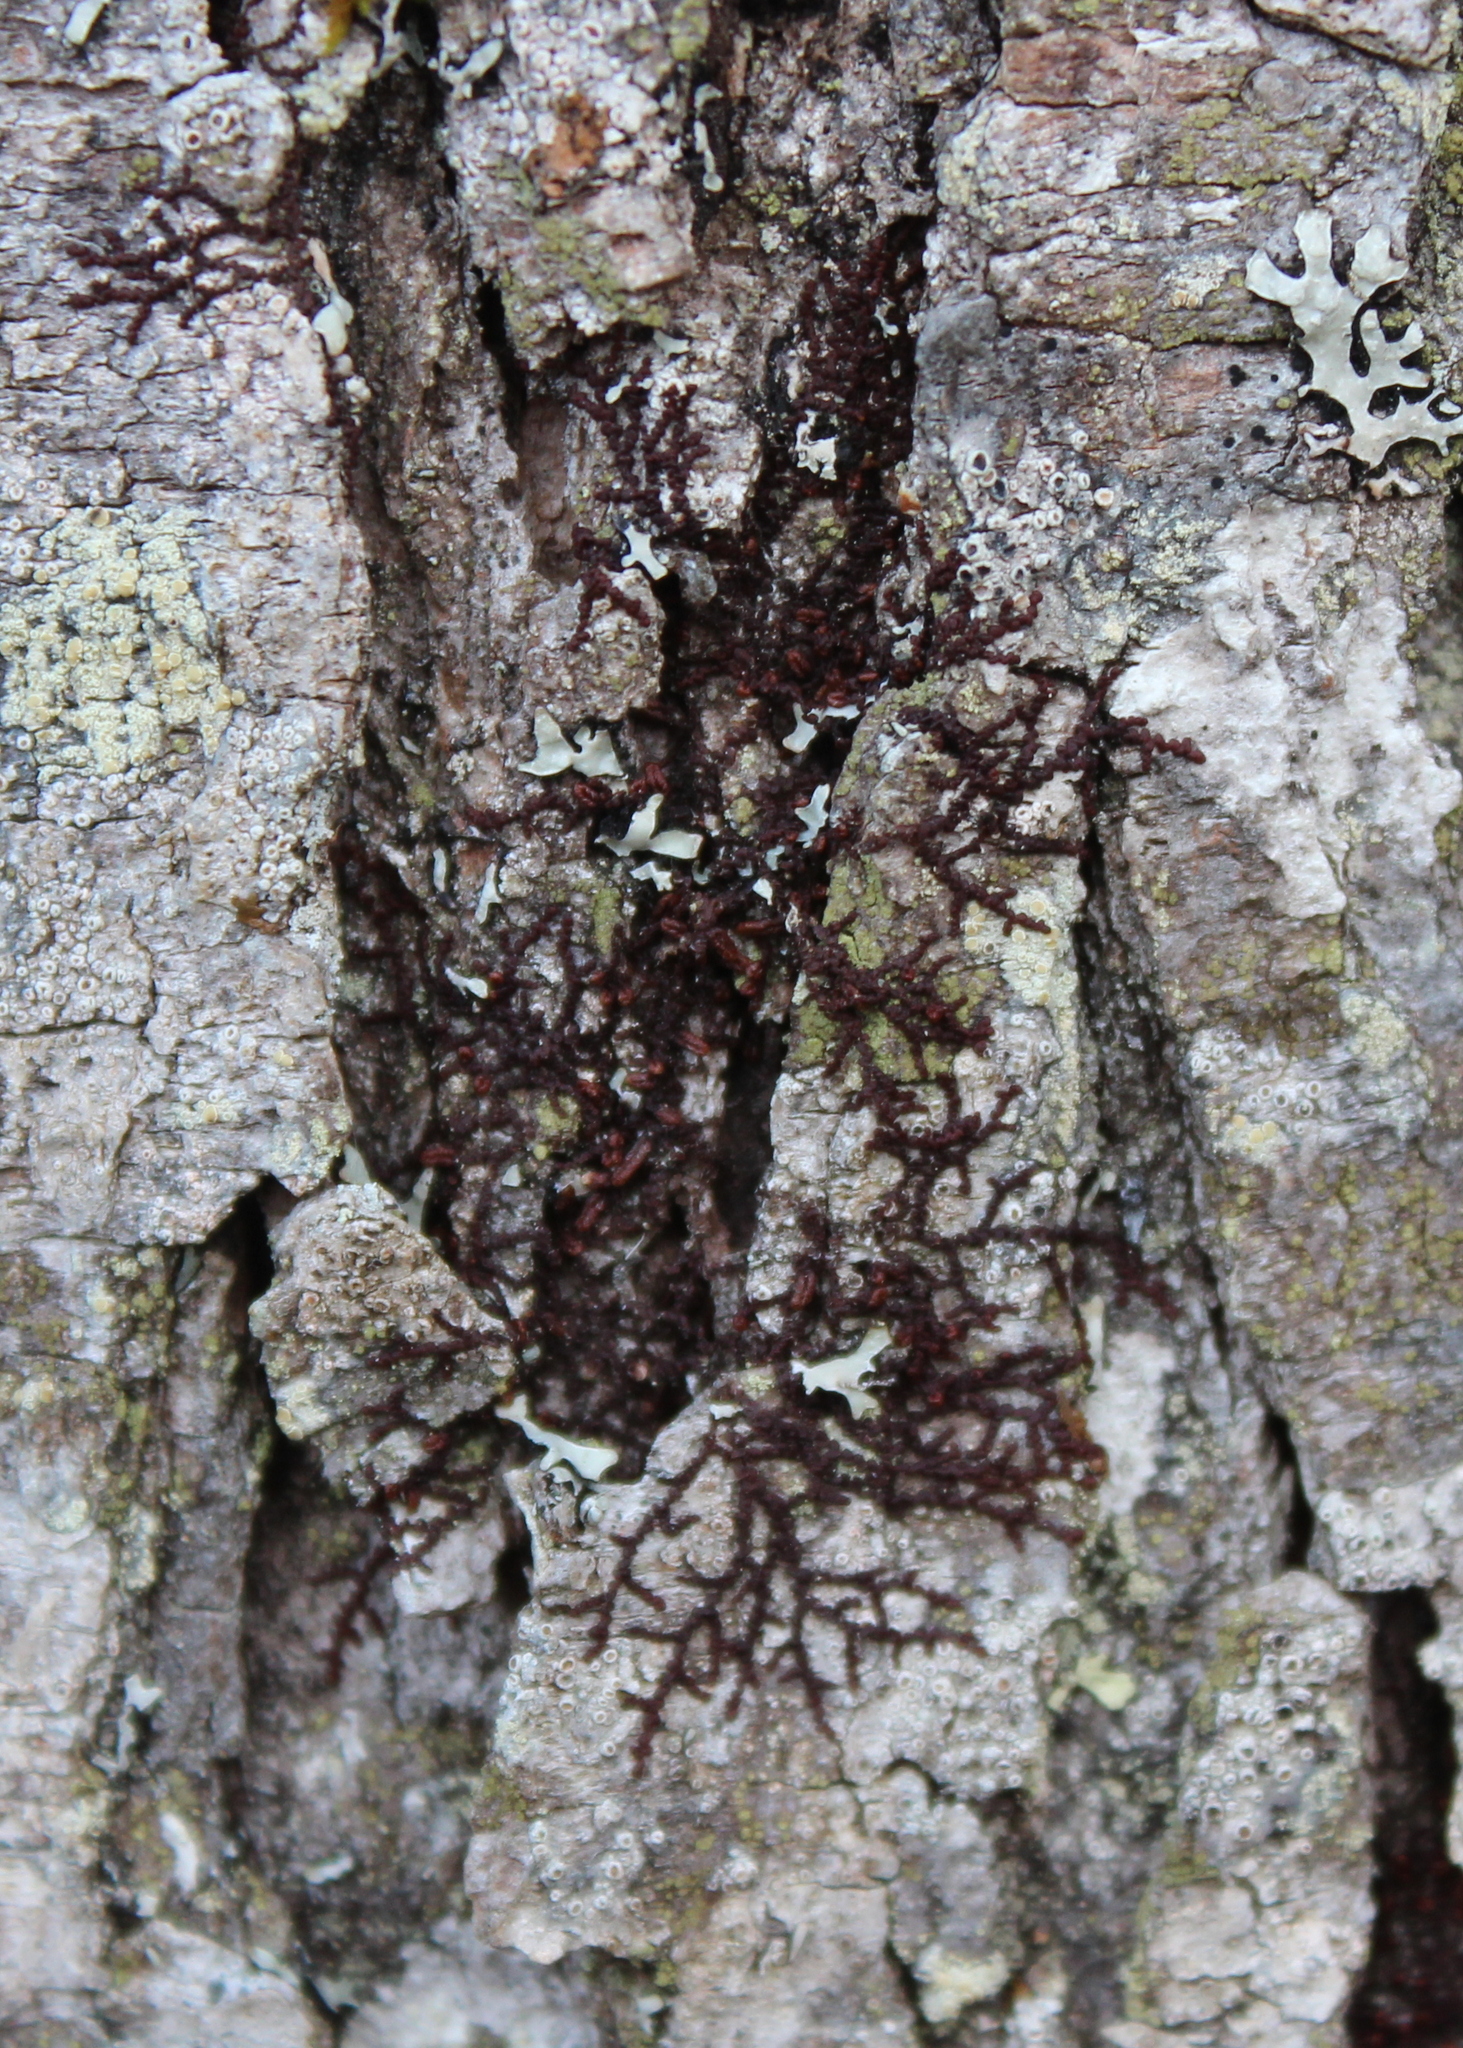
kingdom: Plantae
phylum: Marchantiophyta
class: Jungermanniopsida
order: Porellales
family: Frullaniaceae
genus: Frullania
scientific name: Frullania eboracensis
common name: New york scalewort
